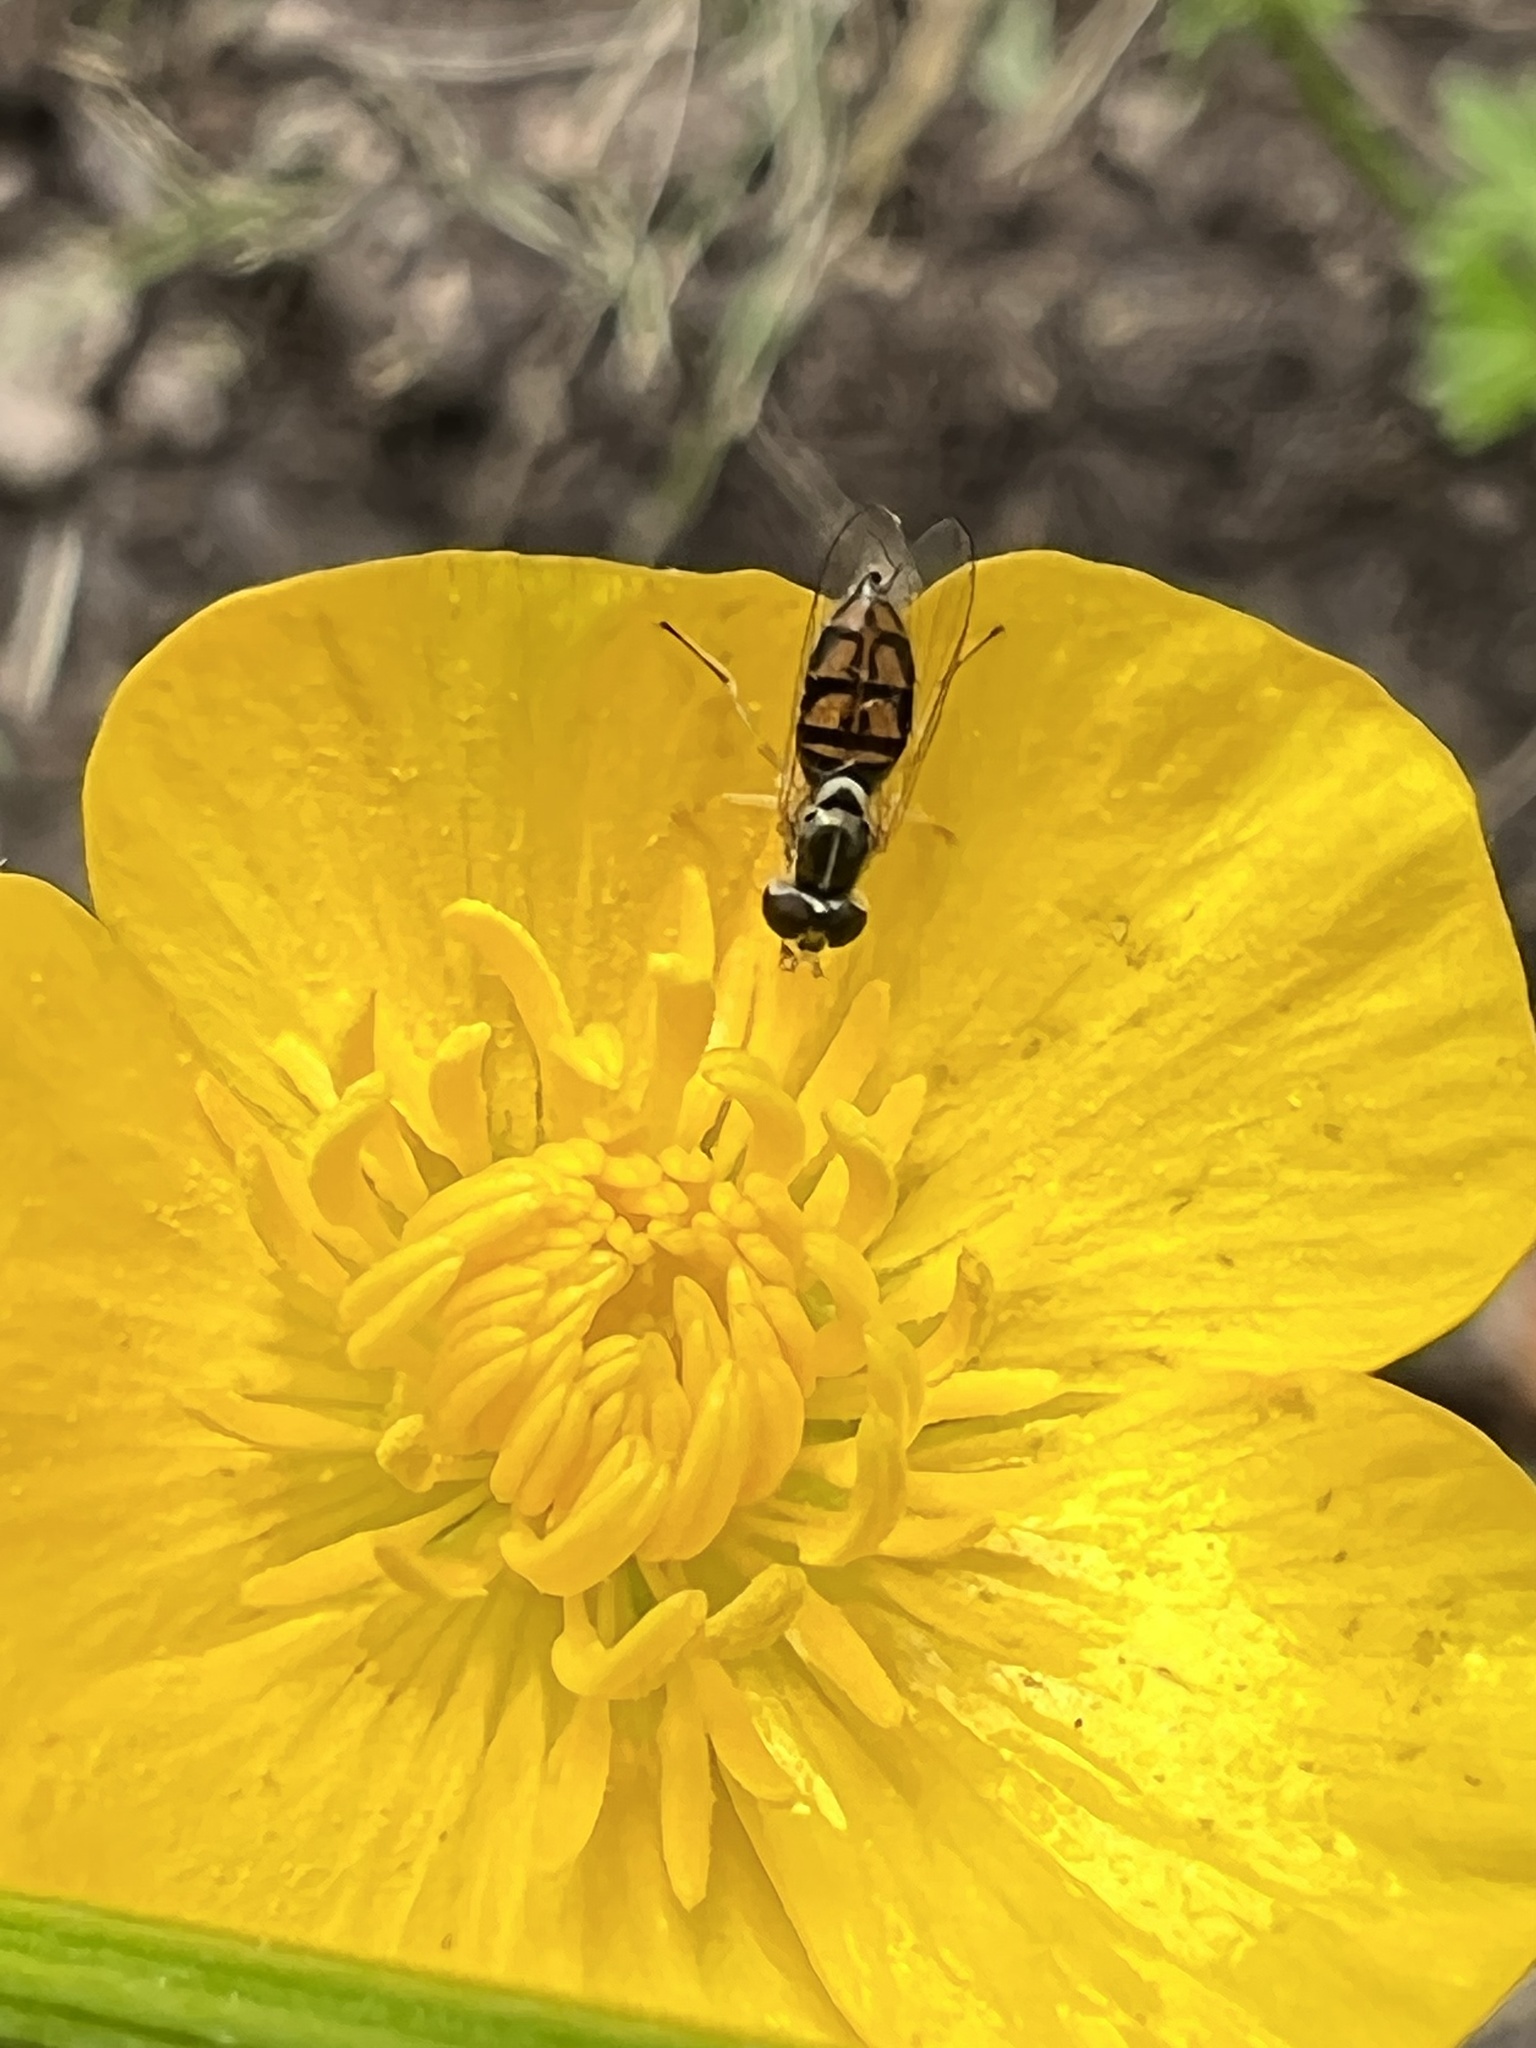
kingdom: Animalia
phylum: Arthropoda
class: Insecta
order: Diptera
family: Syrphidae
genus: Toxomerus
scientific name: Toxomerus marginatus
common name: Syrphid fly
